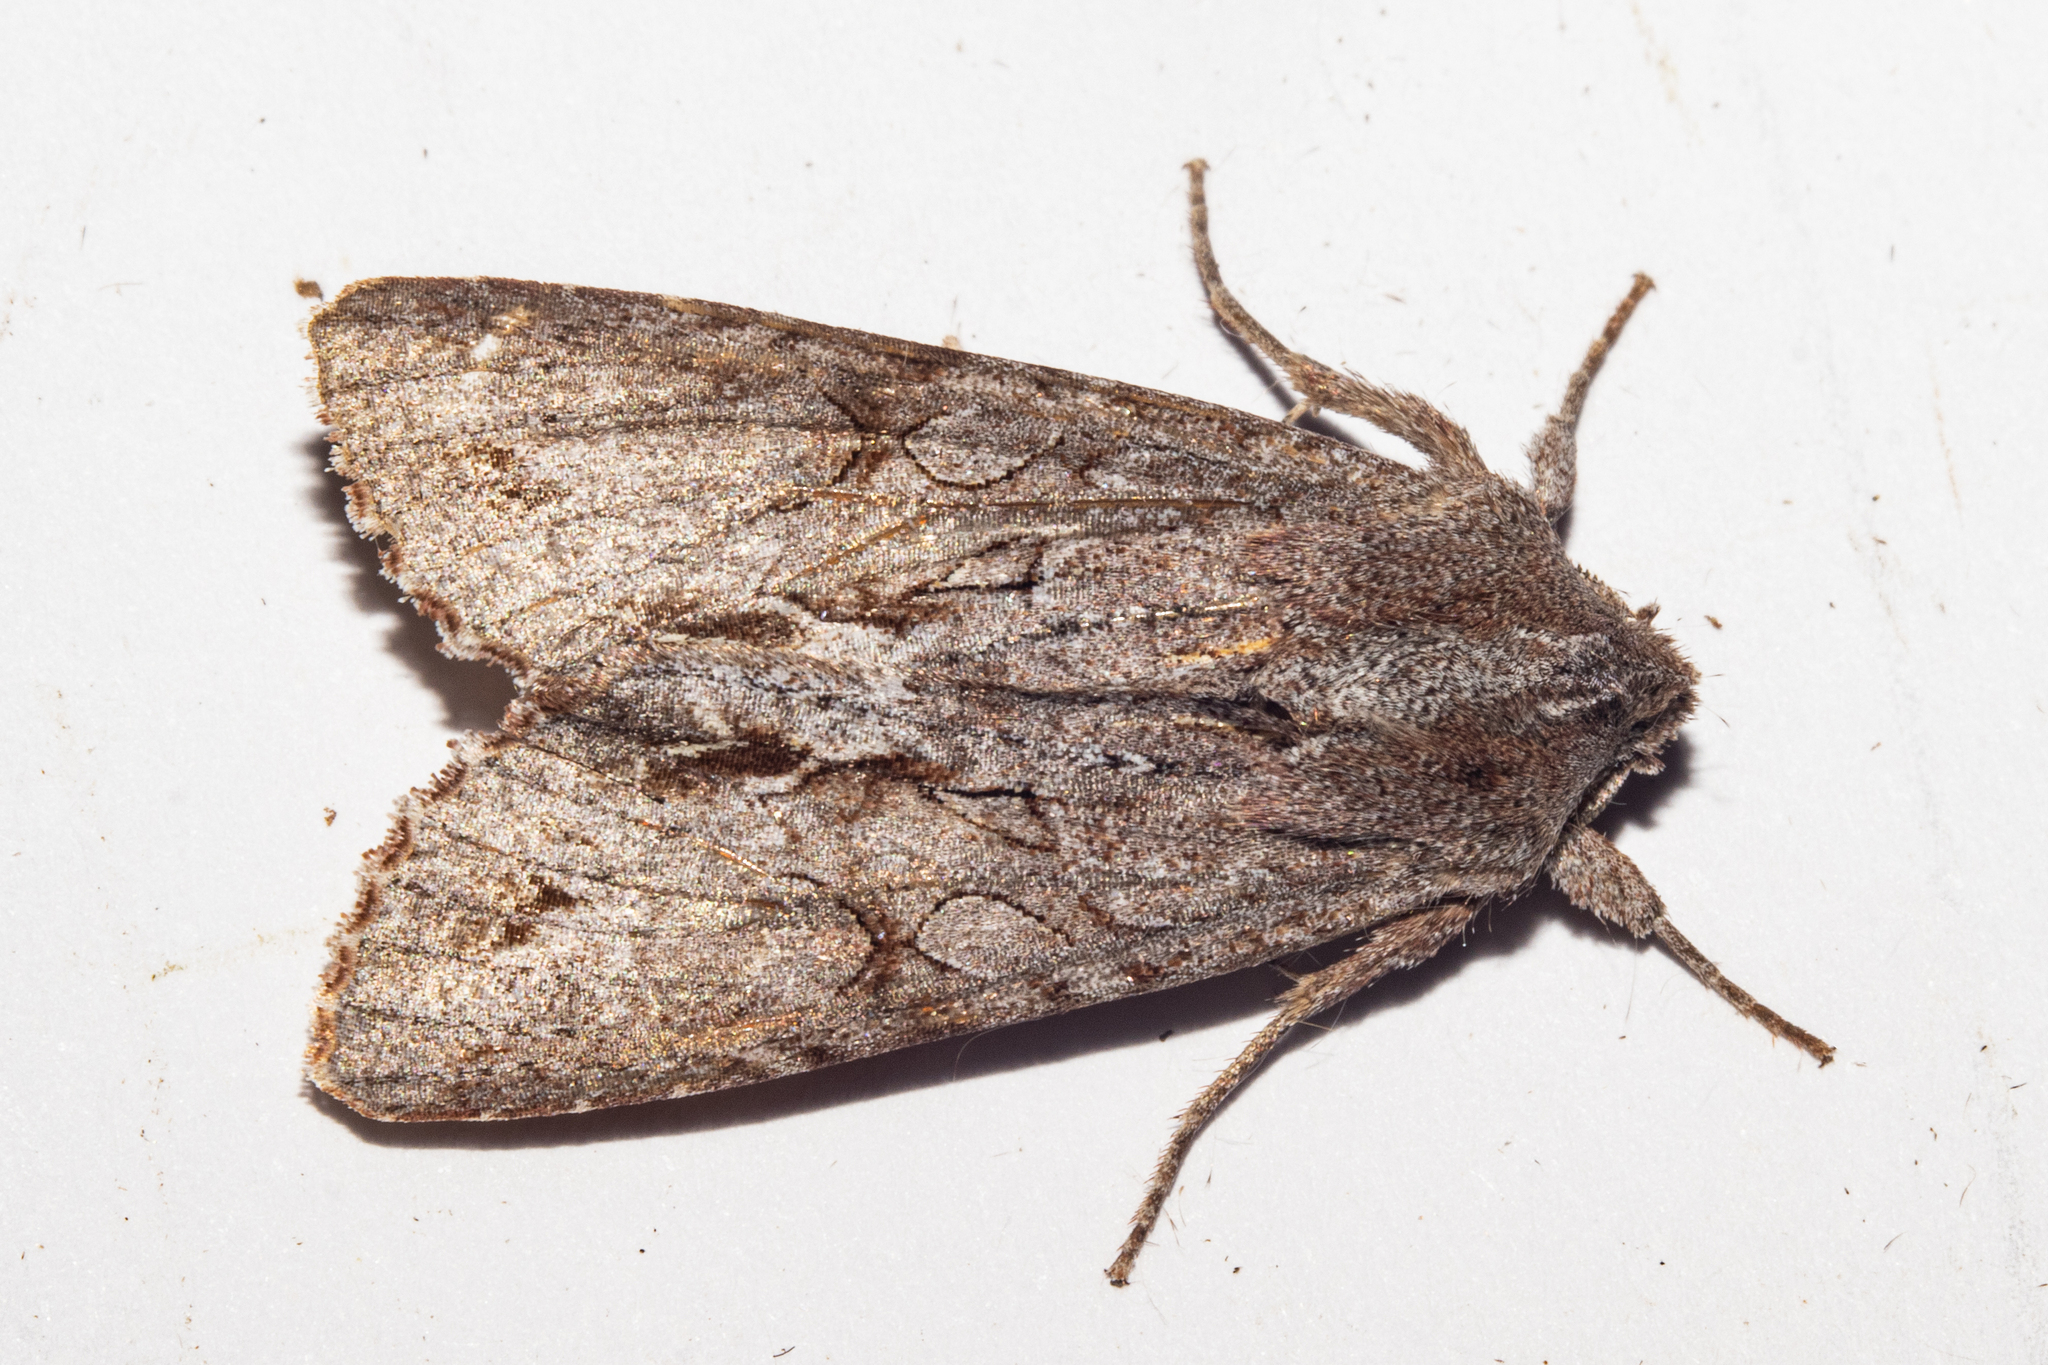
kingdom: Animalia
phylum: Arthropoda
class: Insecta
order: Lepidoptera
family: Noctuidae
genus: Ichneutica
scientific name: Ichneutica
